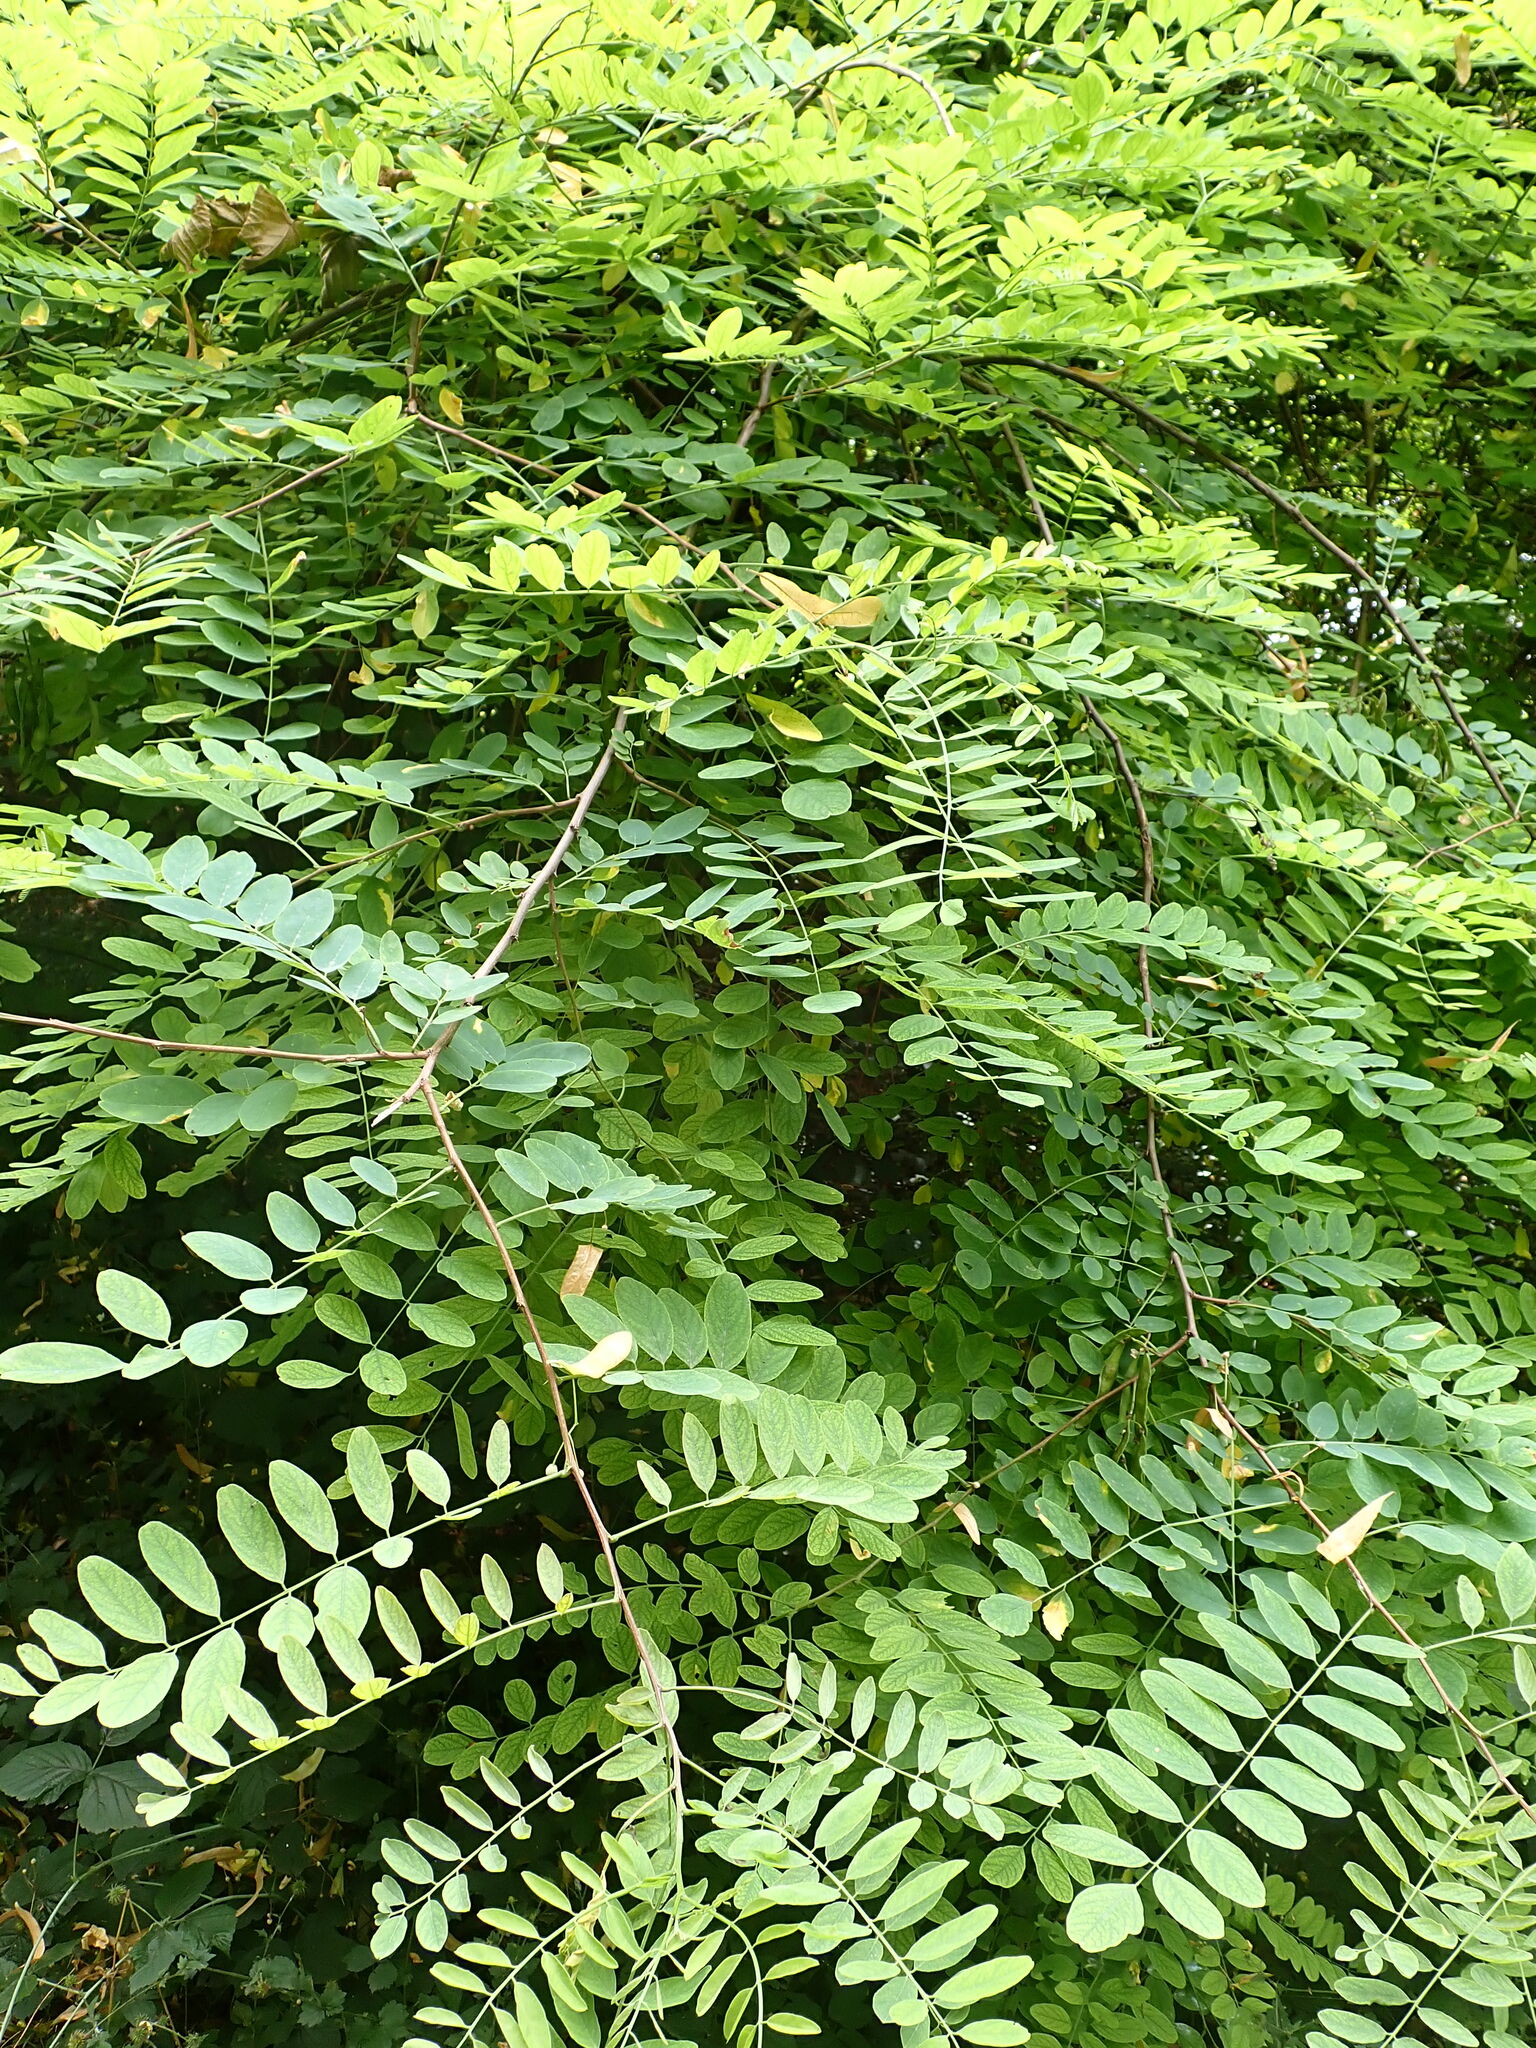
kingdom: Plantae
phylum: Tracheophyta
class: Magnoliopsida
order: Fabales
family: Fabaceae
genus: Robinia
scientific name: Robinia pseudoacacia
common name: Black locust
